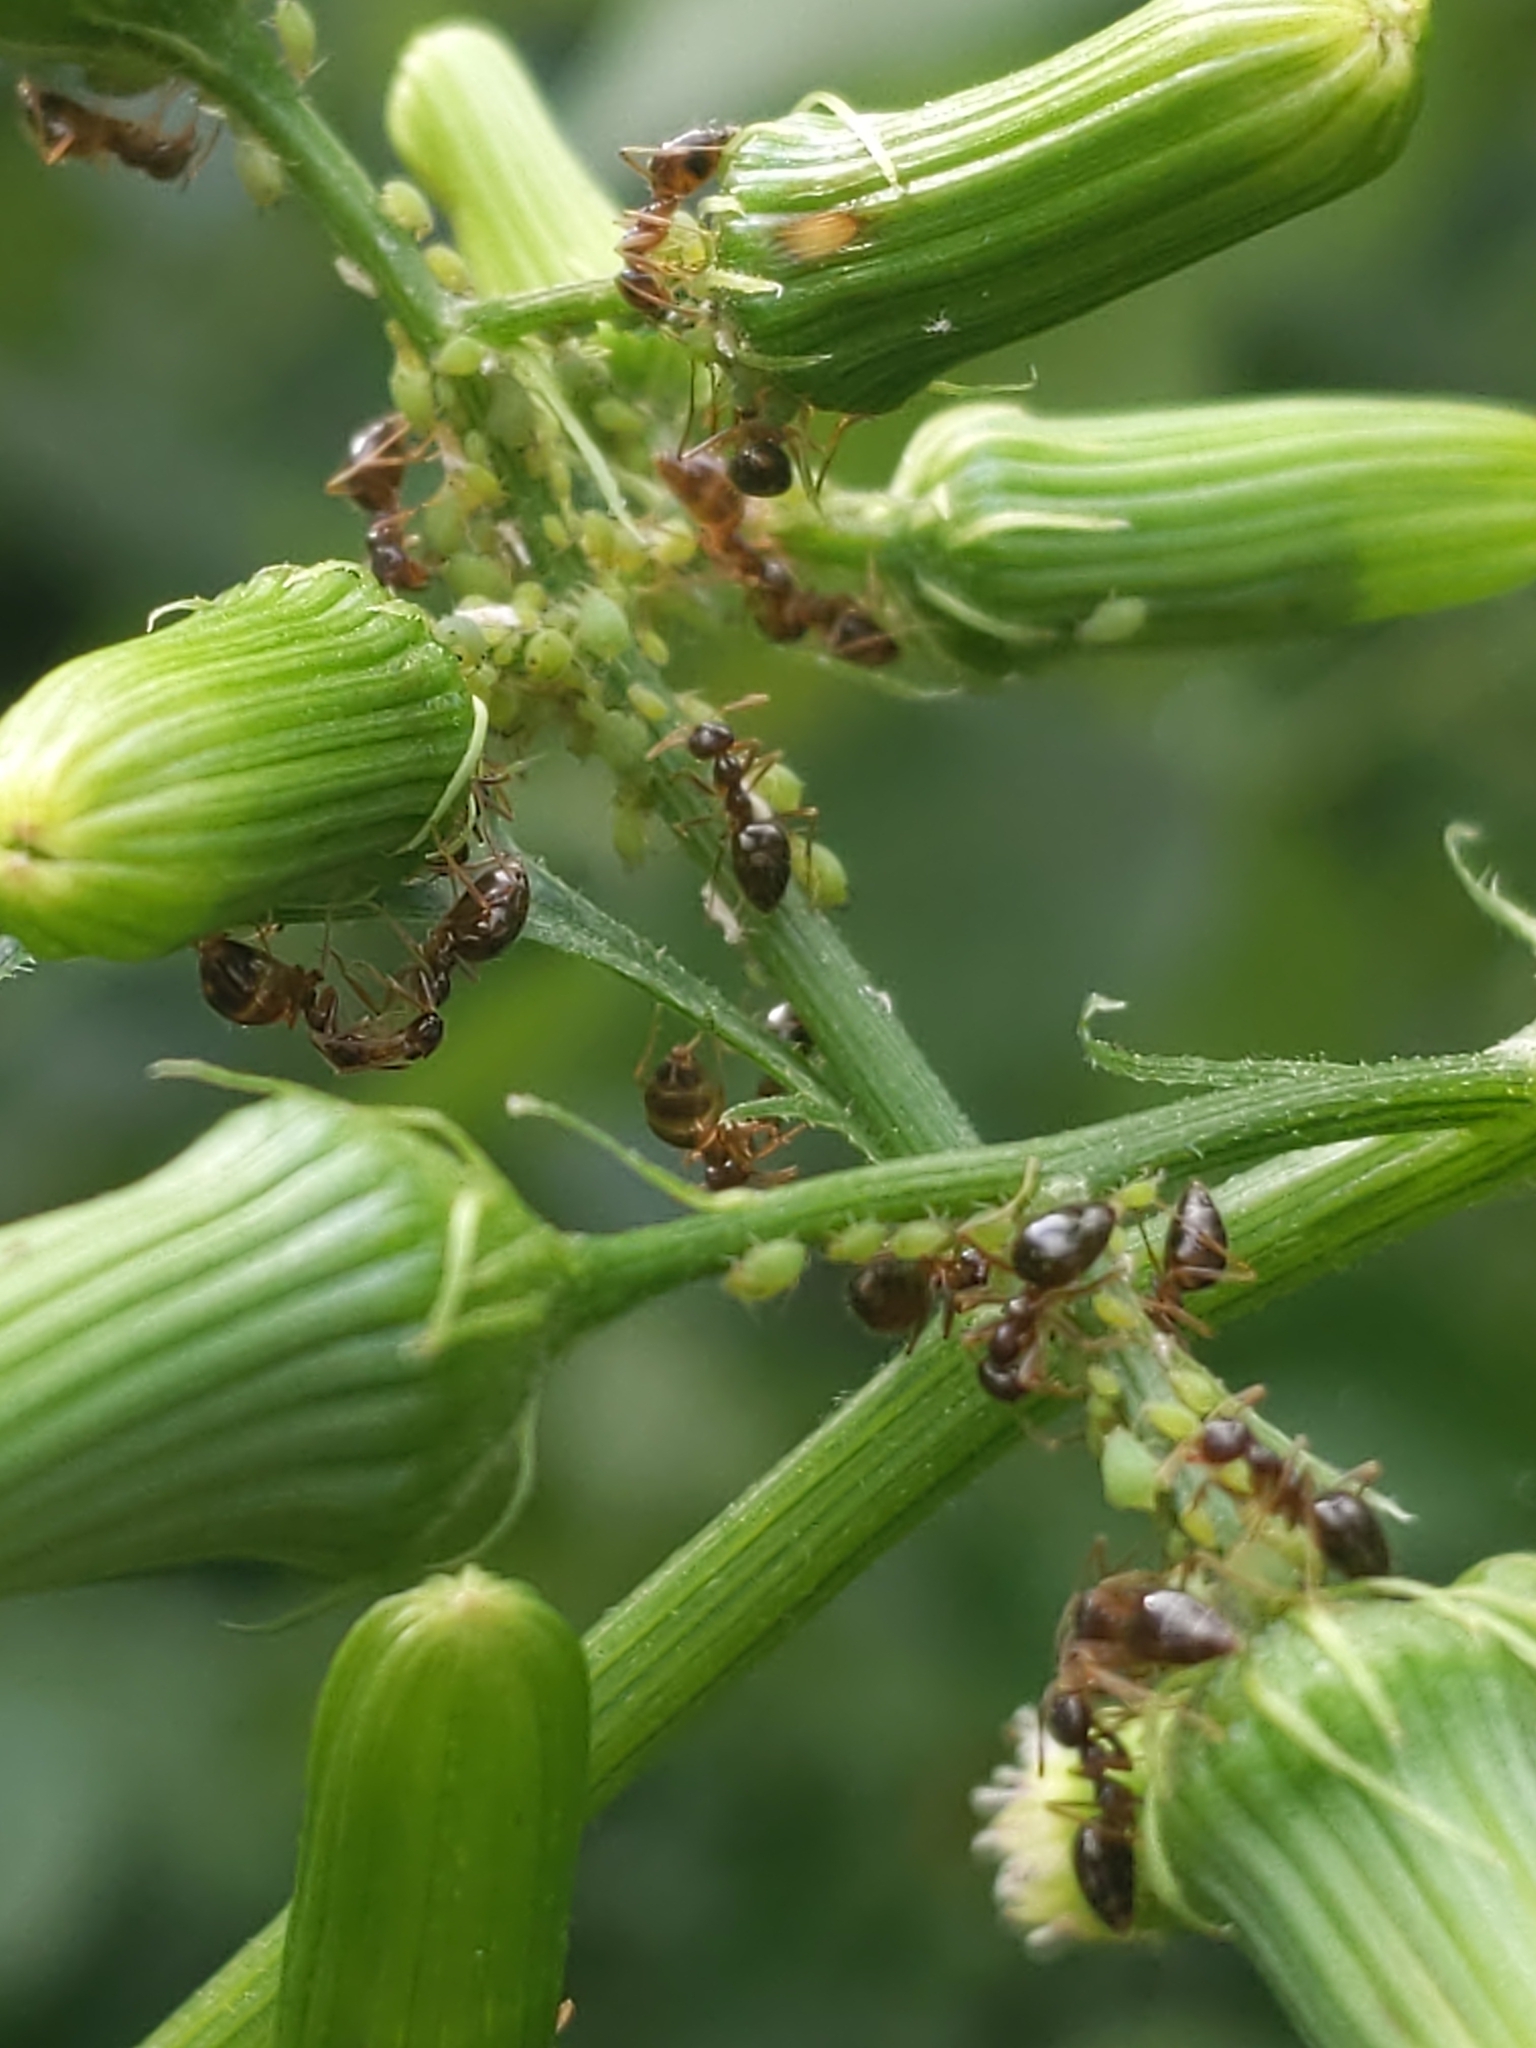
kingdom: Animalia
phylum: Arthropoda
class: Insecta
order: Hymenoptera
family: Formicidae
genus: Prenolepis
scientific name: Prenolepis imparis
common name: Small honey ant
